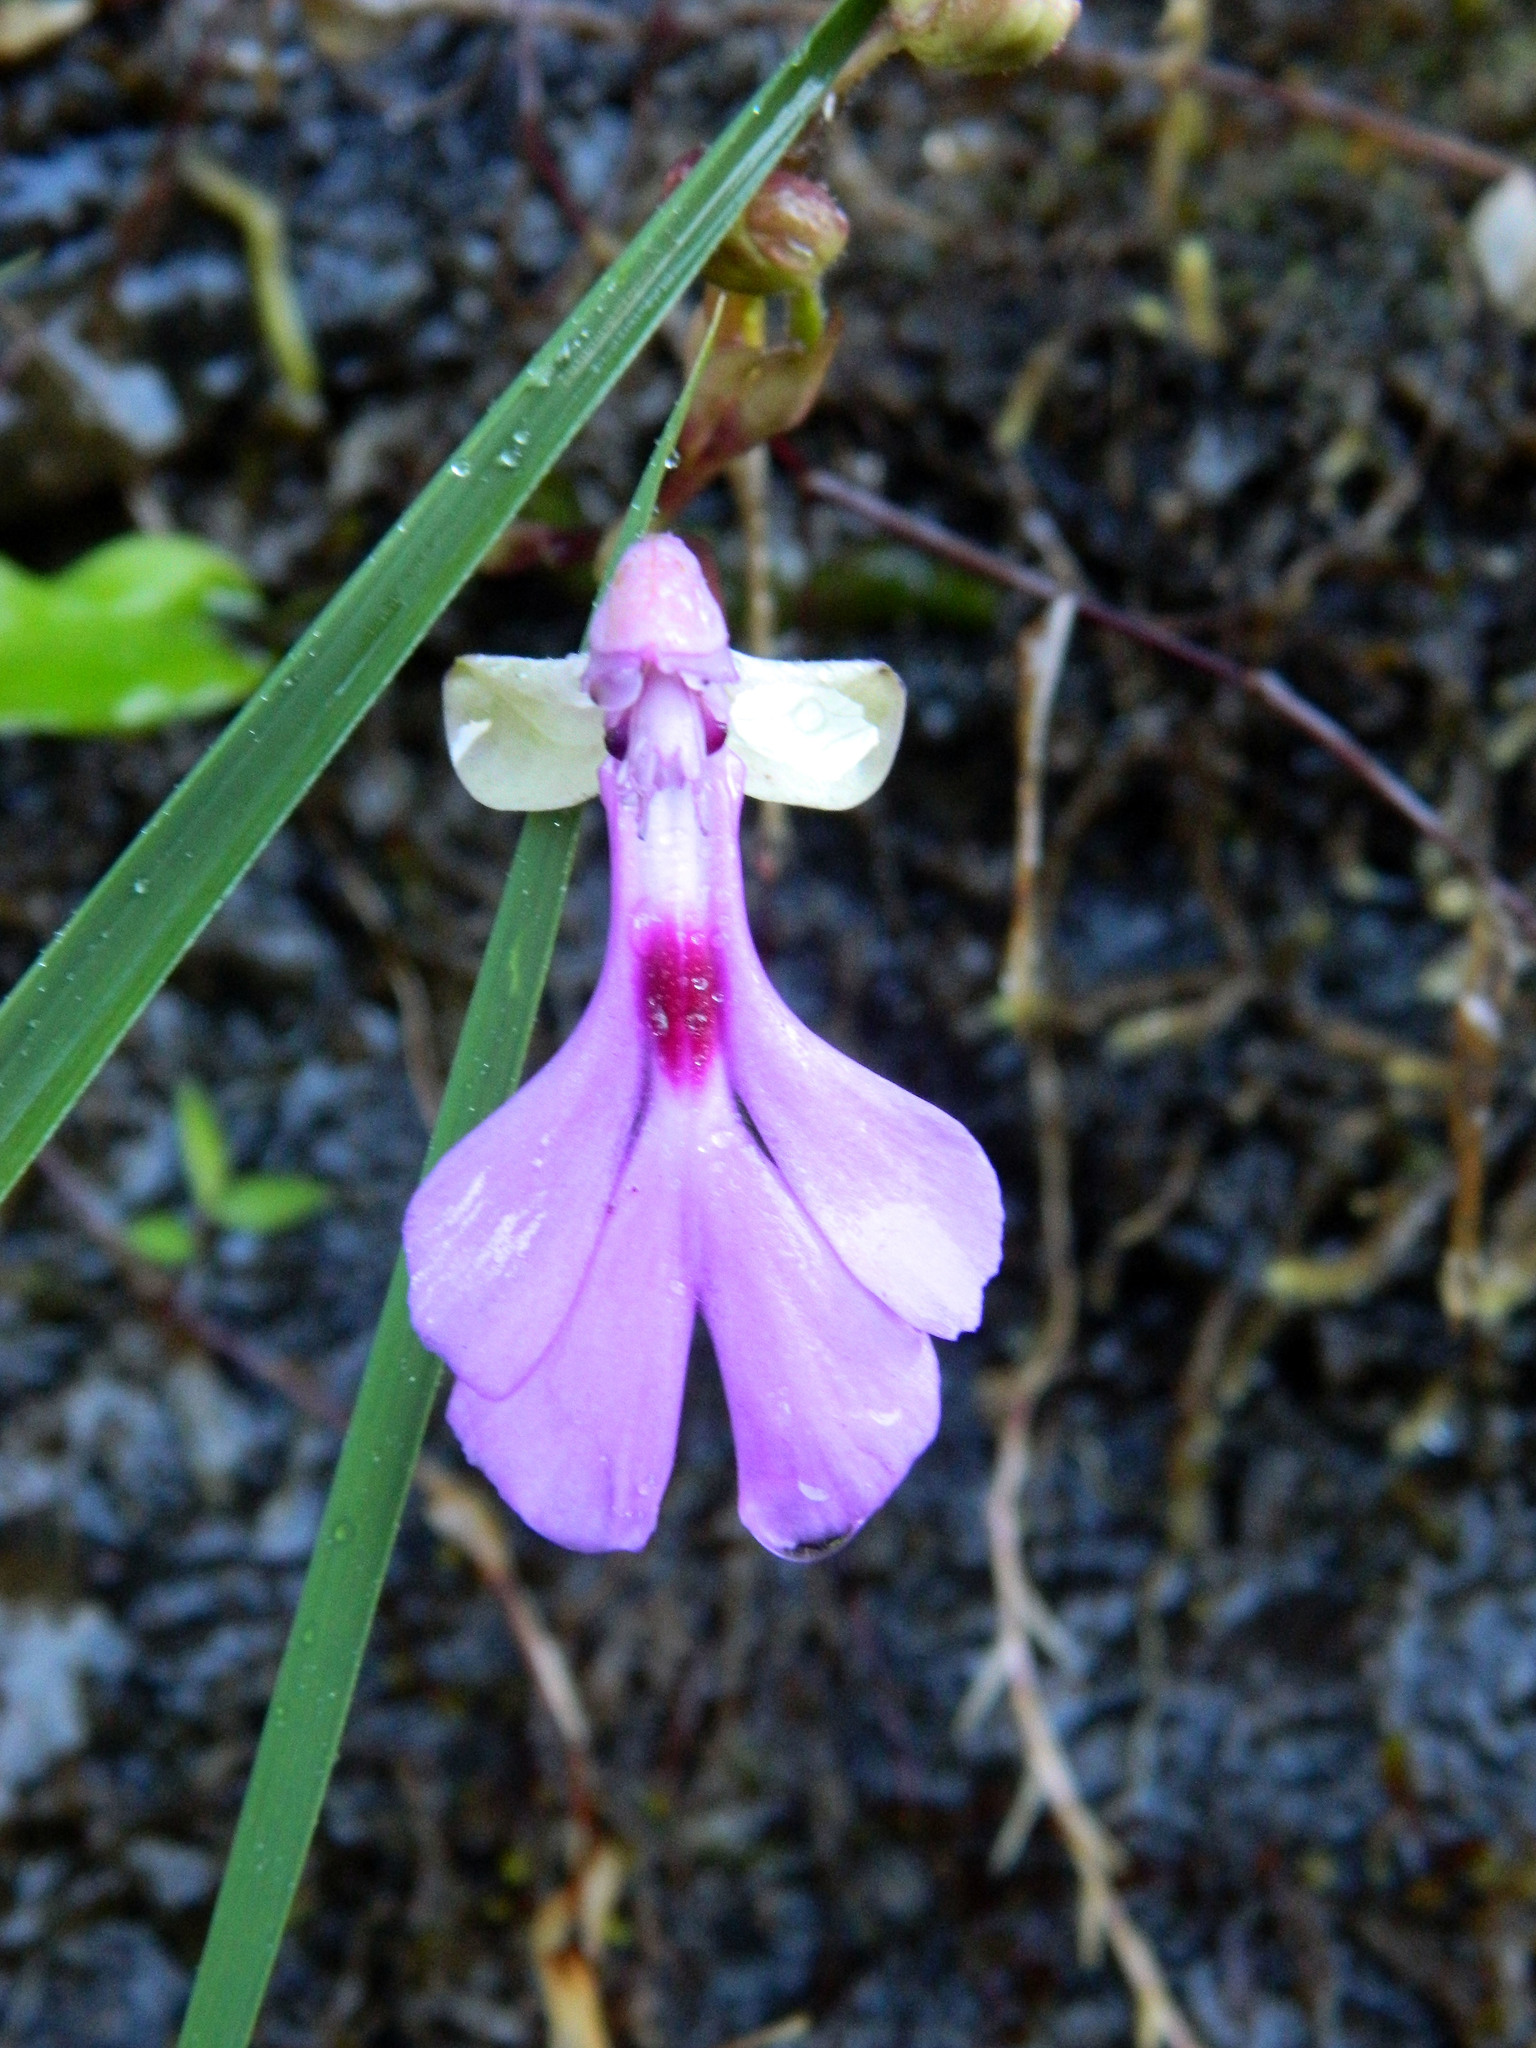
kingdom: Plantae
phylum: Tracheophyta
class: Liliopsida
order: Asparagales
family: Orchidaceae
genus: Cynorkis
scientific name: Cynorkis lowiana
